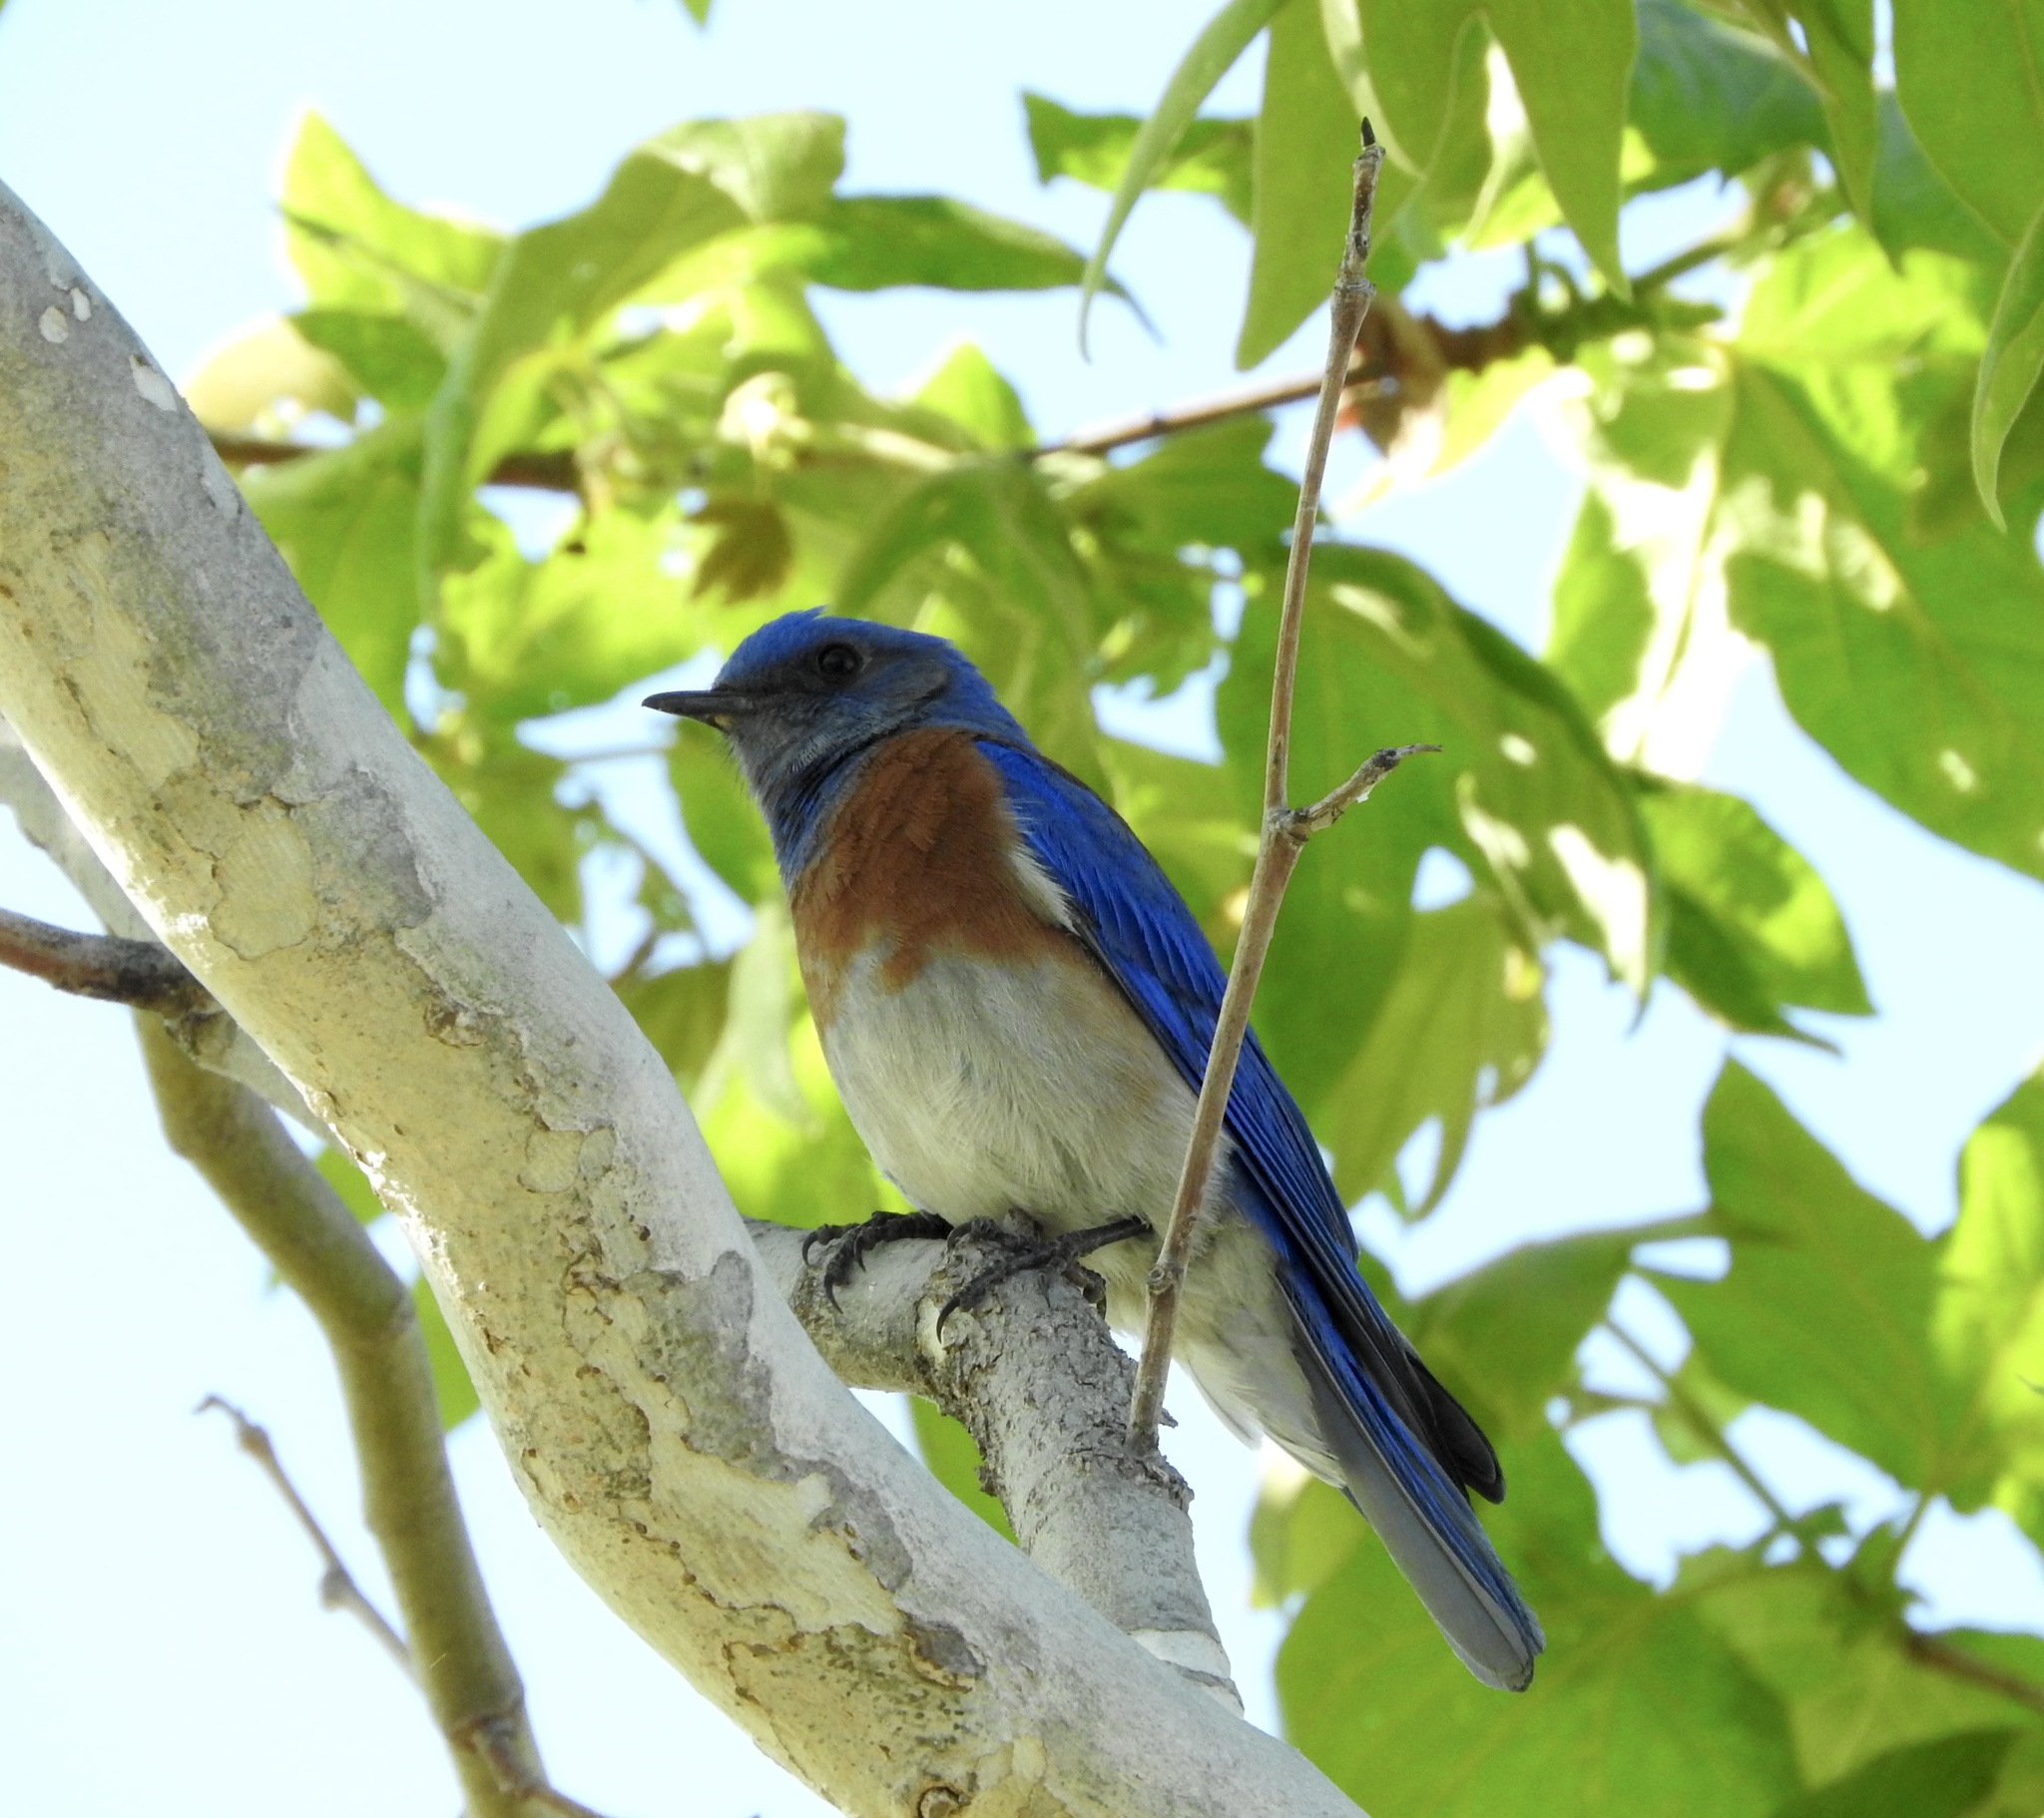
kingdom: Animalia
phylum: Chordata
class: Aves
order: Passeriformes
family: Turdidae
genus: Sialia
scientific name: Sialia mexicana
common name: Western bluebird
